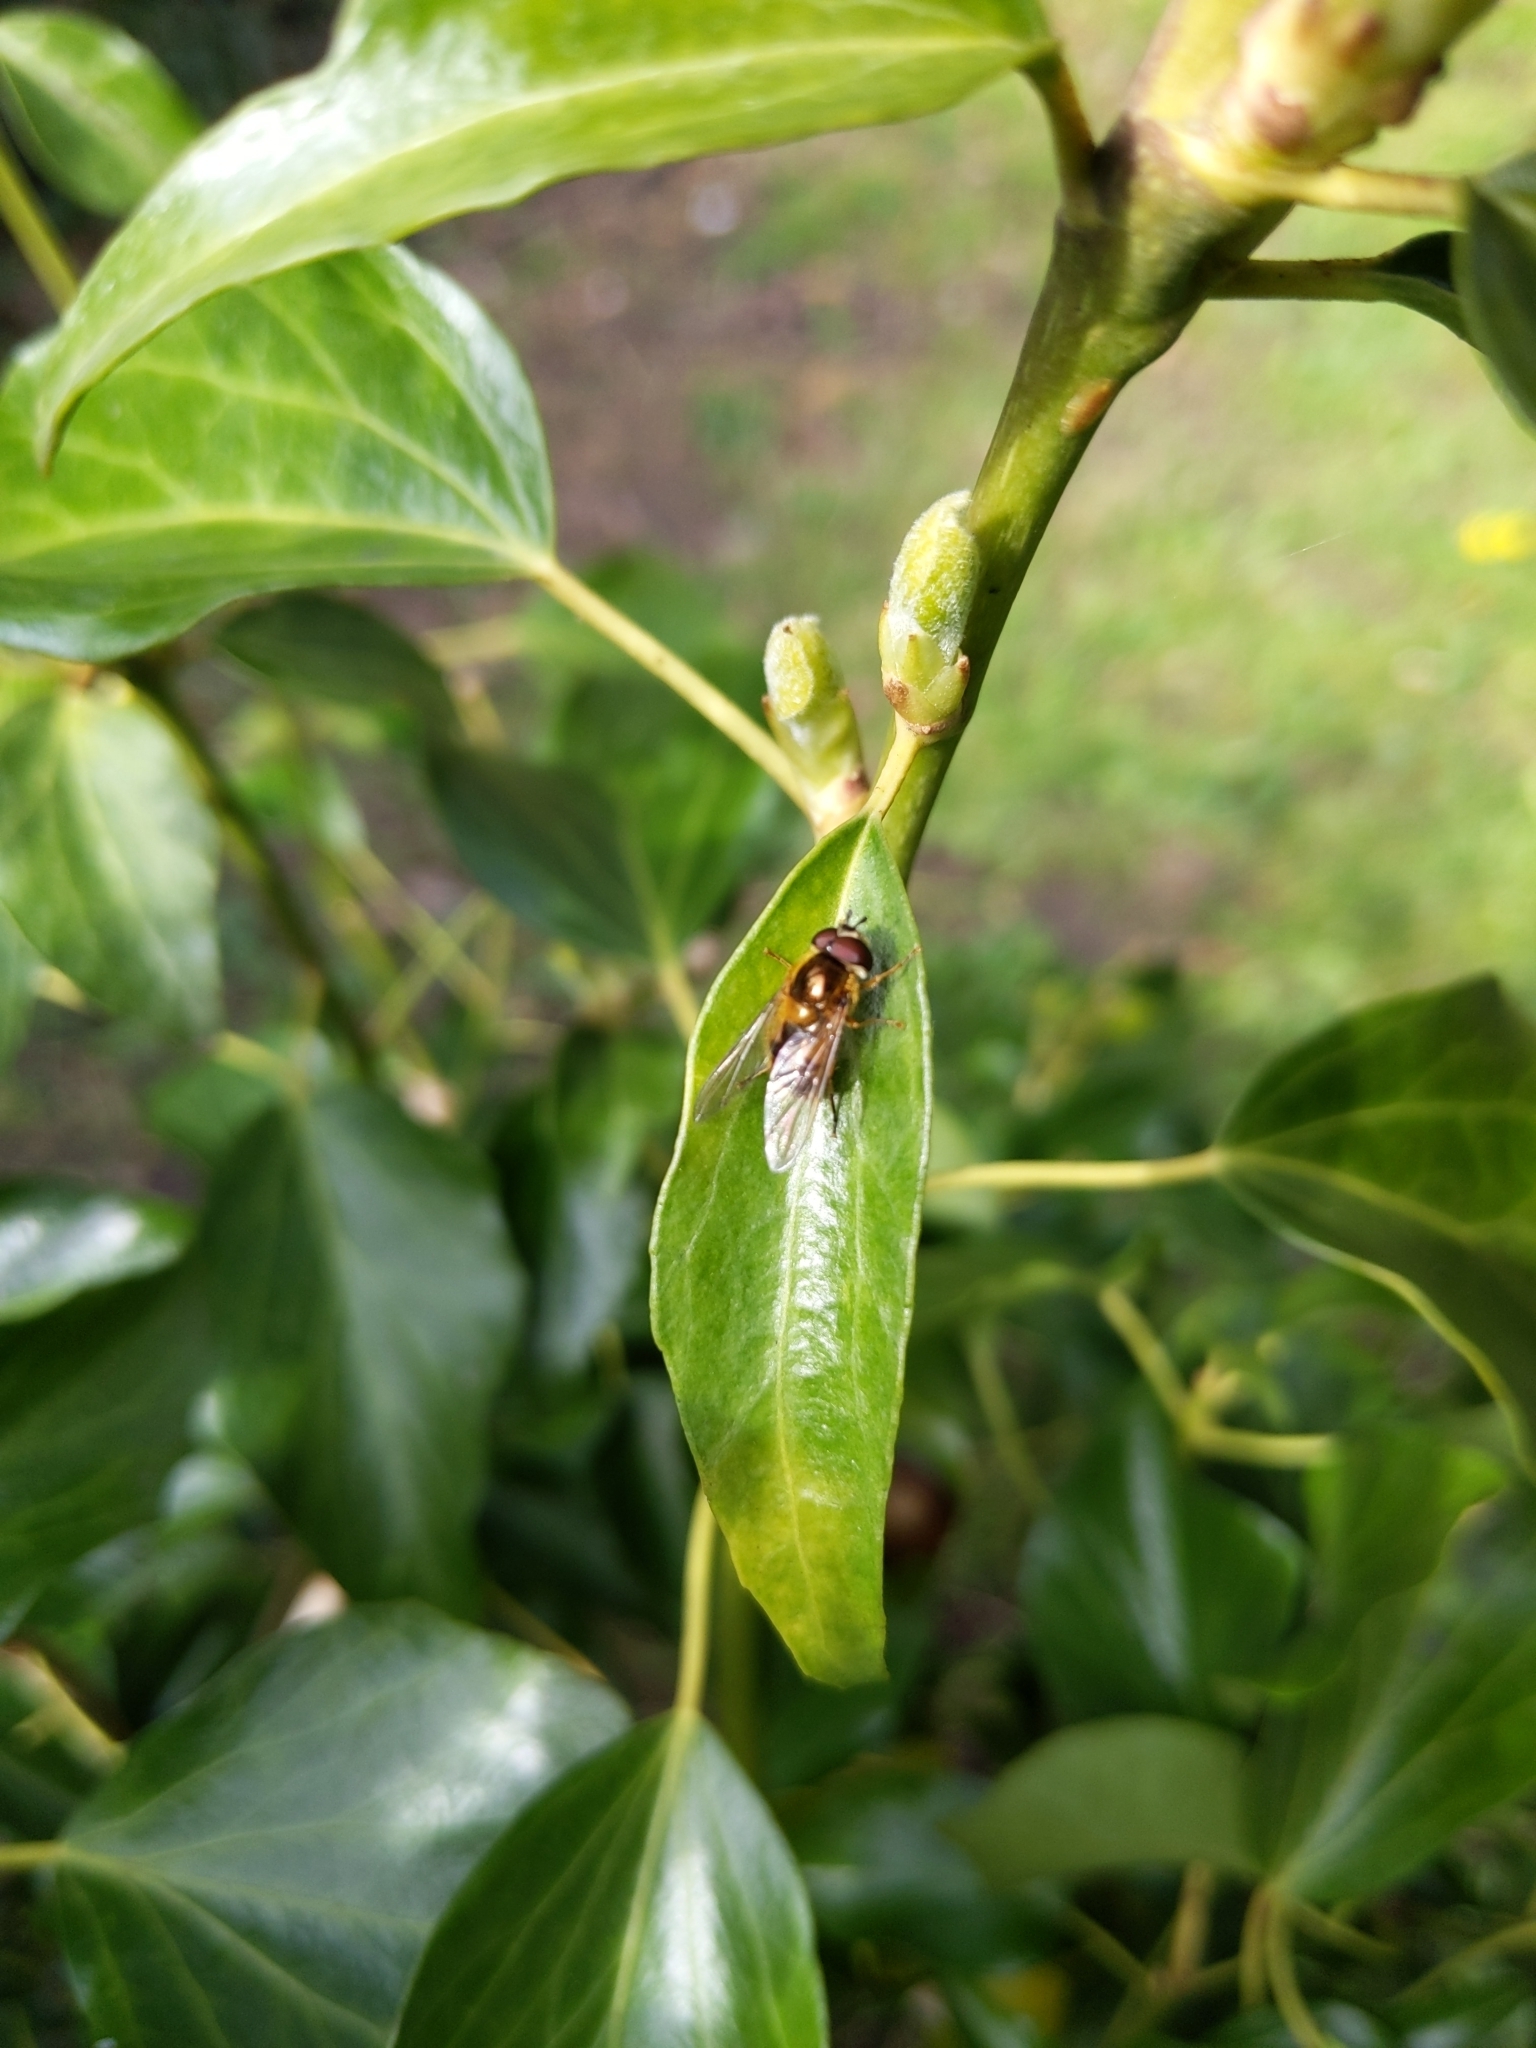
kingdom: Animalia
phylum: Arthropoda
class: Insecta
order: Diptera
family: Syrphidae
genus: Epistrophe
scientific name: Epistrophe eligans
